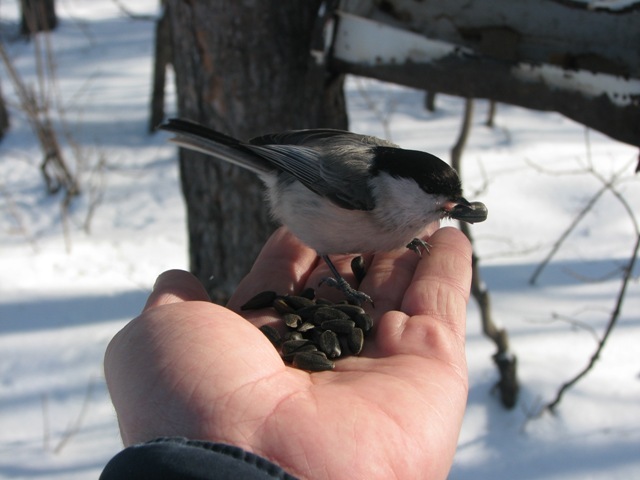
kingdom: Animalia
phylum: Chordata
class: Aves
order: Passeriformes
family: Paridae
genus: Poecile
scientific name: Poecile montanus
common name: Willow tit
